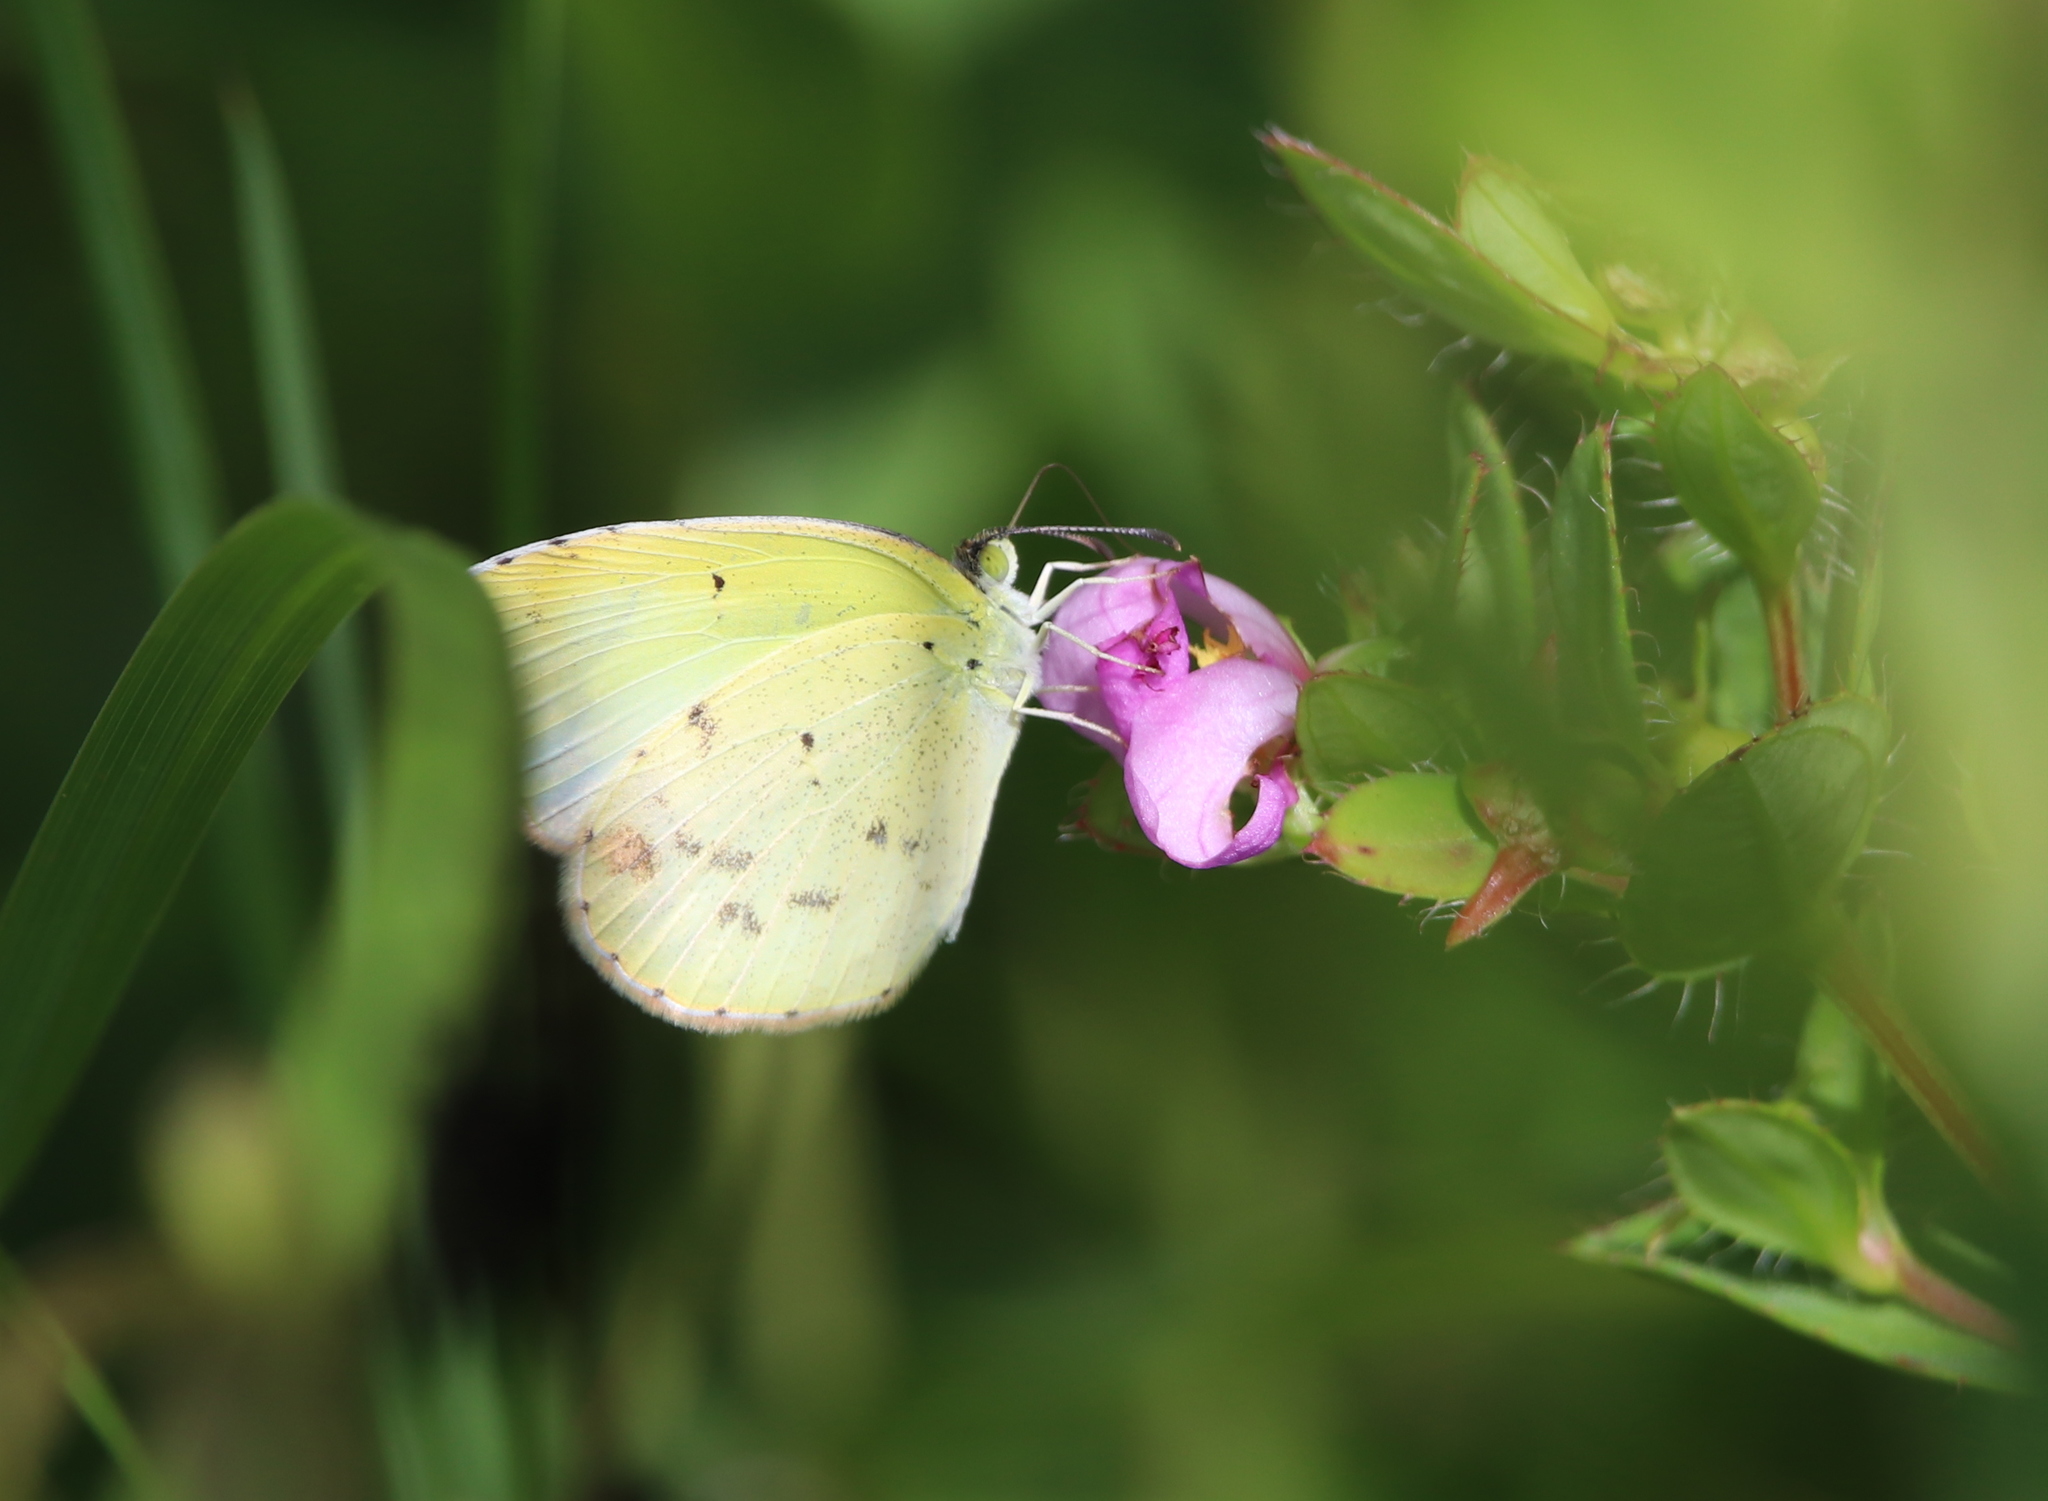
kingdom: Animalia
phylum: Arthropoda
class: Insecta
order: Lepidoptera
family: Pieridae
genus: Pyrisitia
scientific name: Pyrisitia lisa
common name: Little yellow
